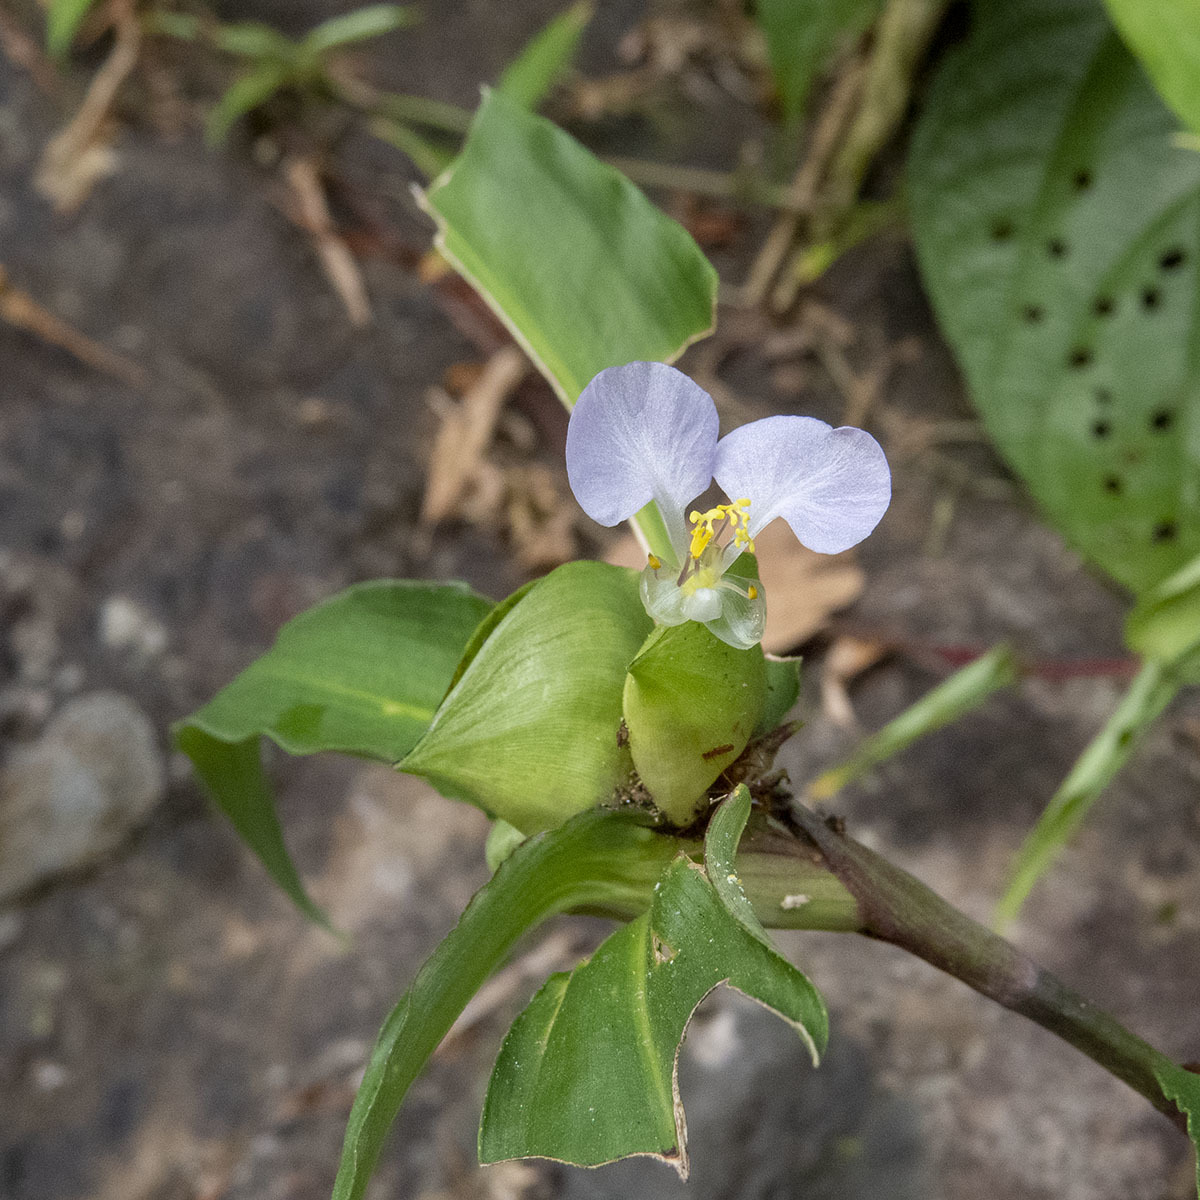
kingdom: Plantae
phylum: Tracheophyta
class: Liliopsida
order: Commelinales
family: Commelinaceae
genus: Commelina
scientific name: Commelina paludosa
